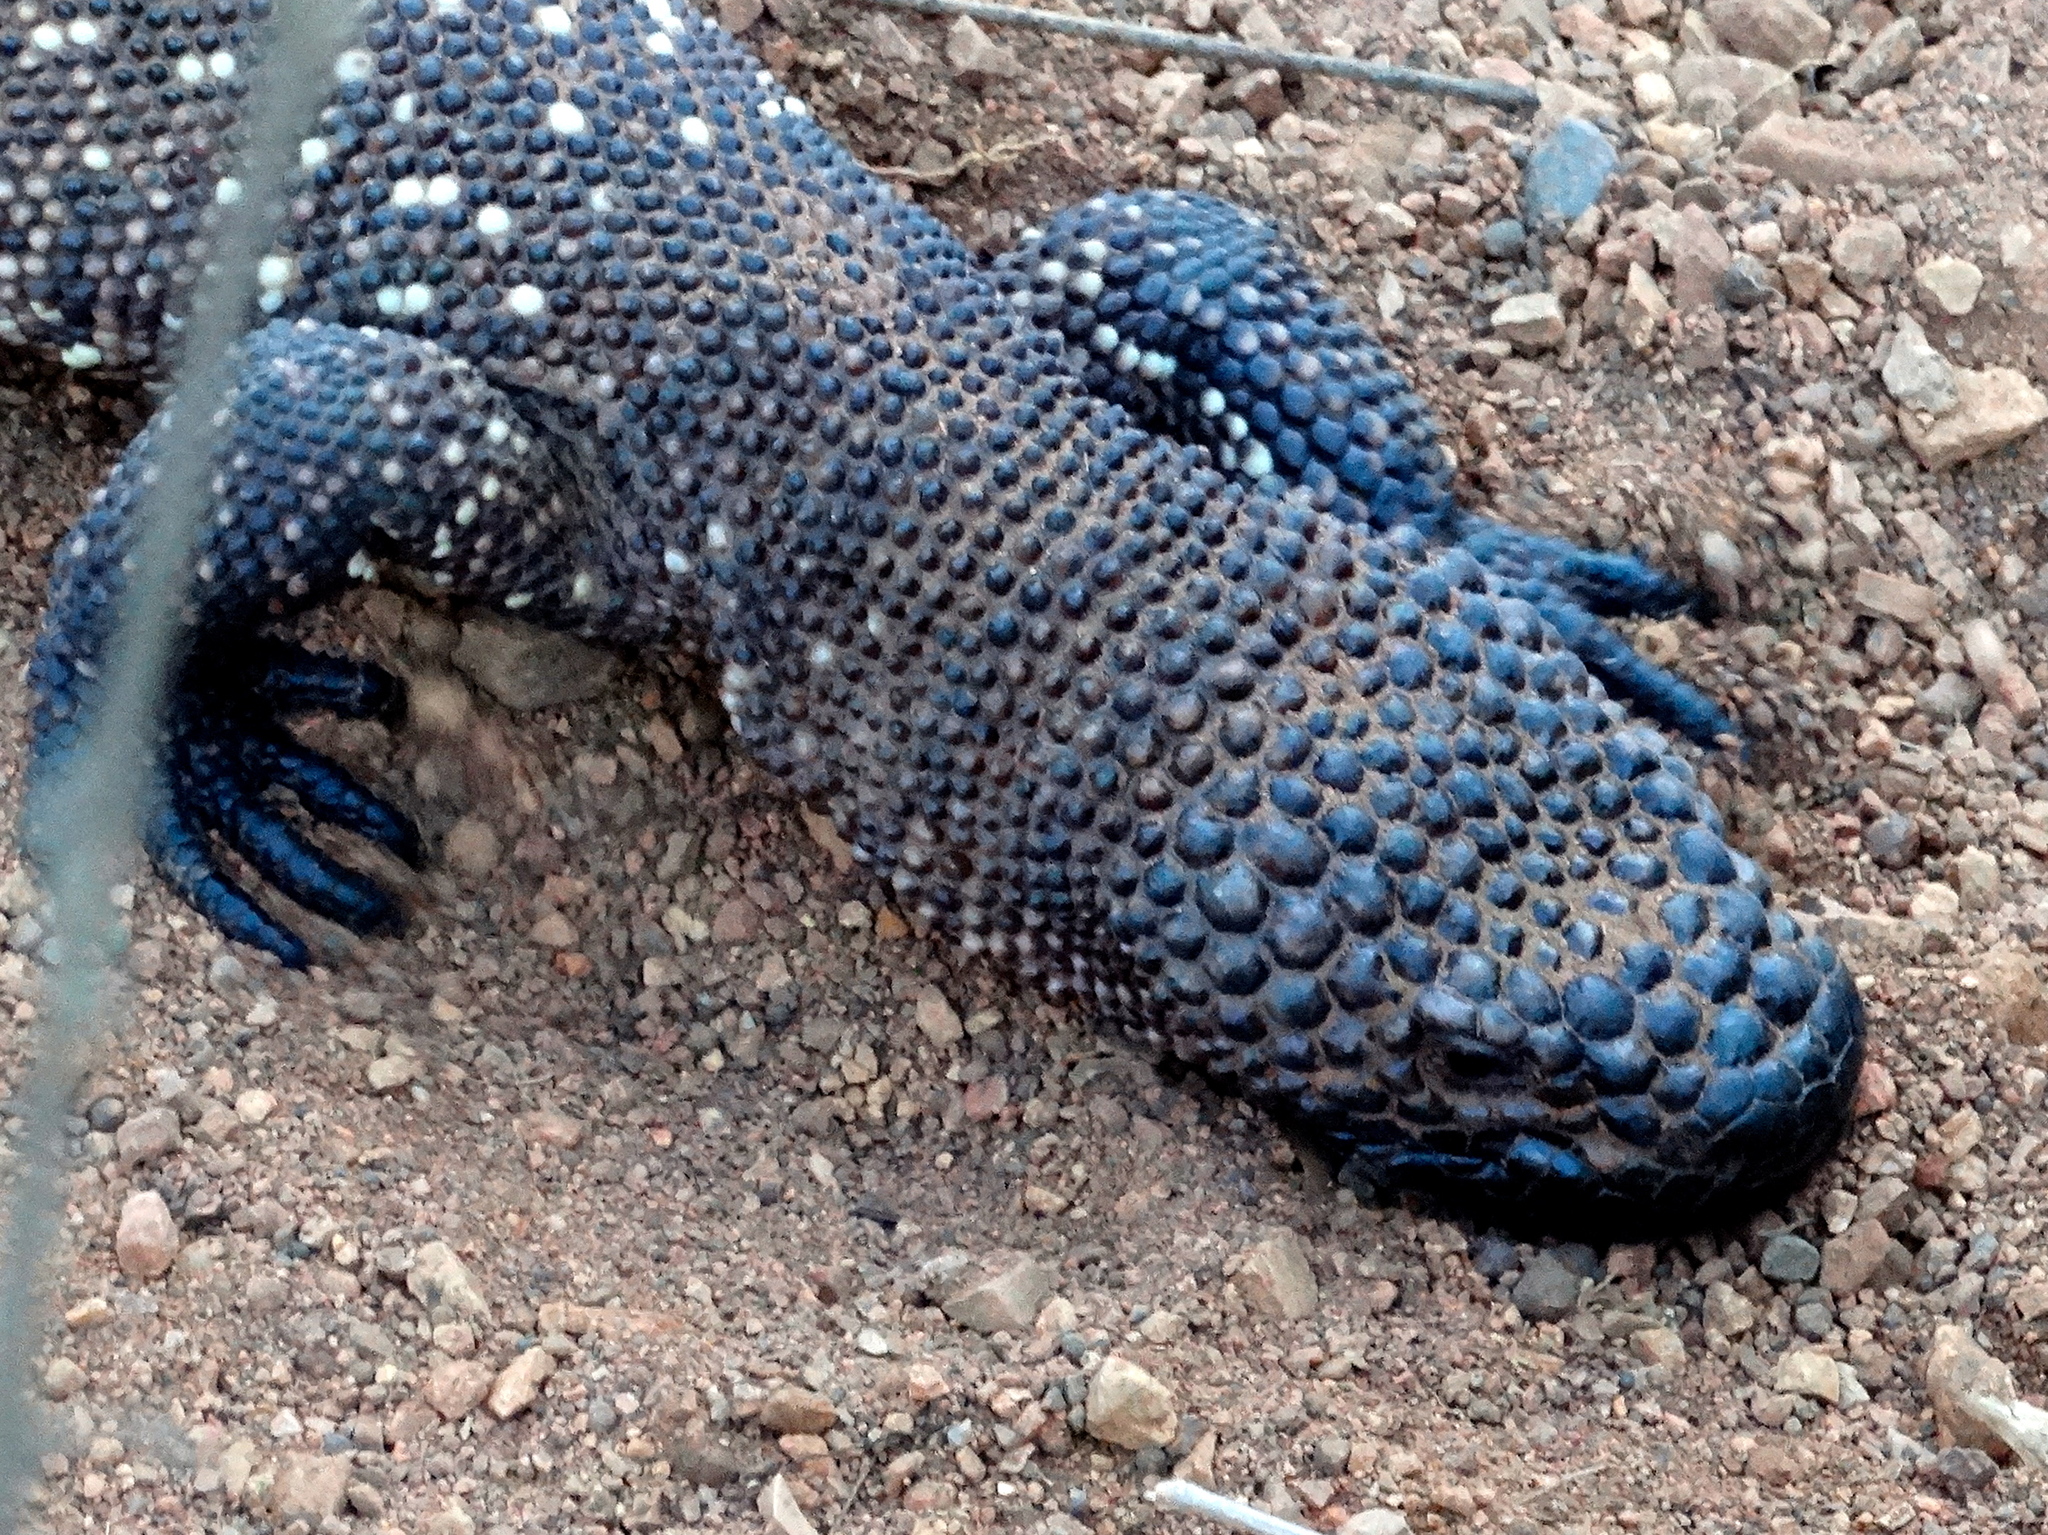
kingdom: Animalia
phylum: Chordata
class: Squamata
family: Helodermatidae
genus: Heloderma
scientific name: Heloderma horridum
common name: Mexican beaded lizard
